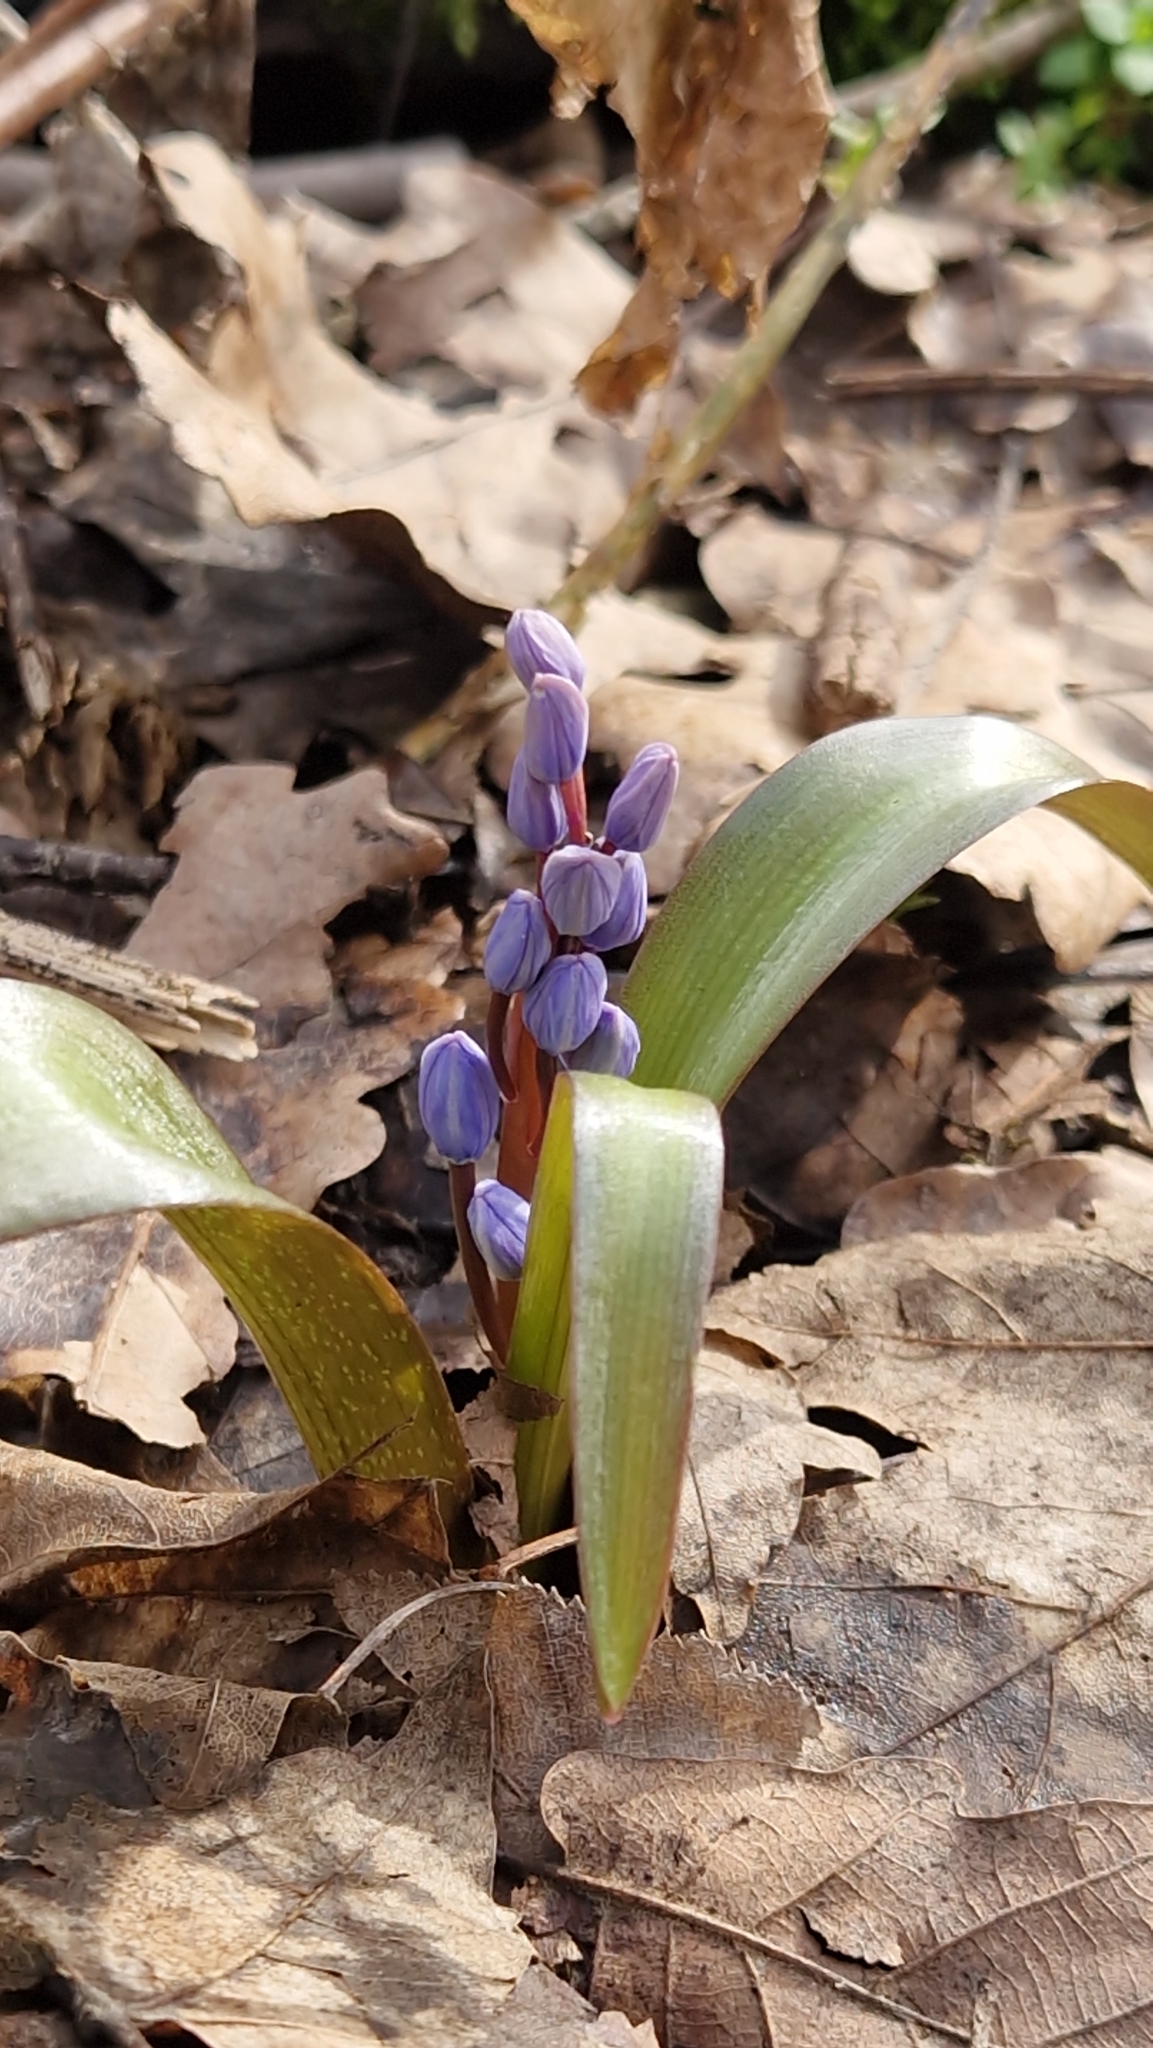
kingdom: Plantae
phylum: Tracheophyta
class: Liliopsida
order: Asparagales
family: Asparagaceae
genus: Scilla
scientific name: Scilla bifolia
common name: Alpine squill
